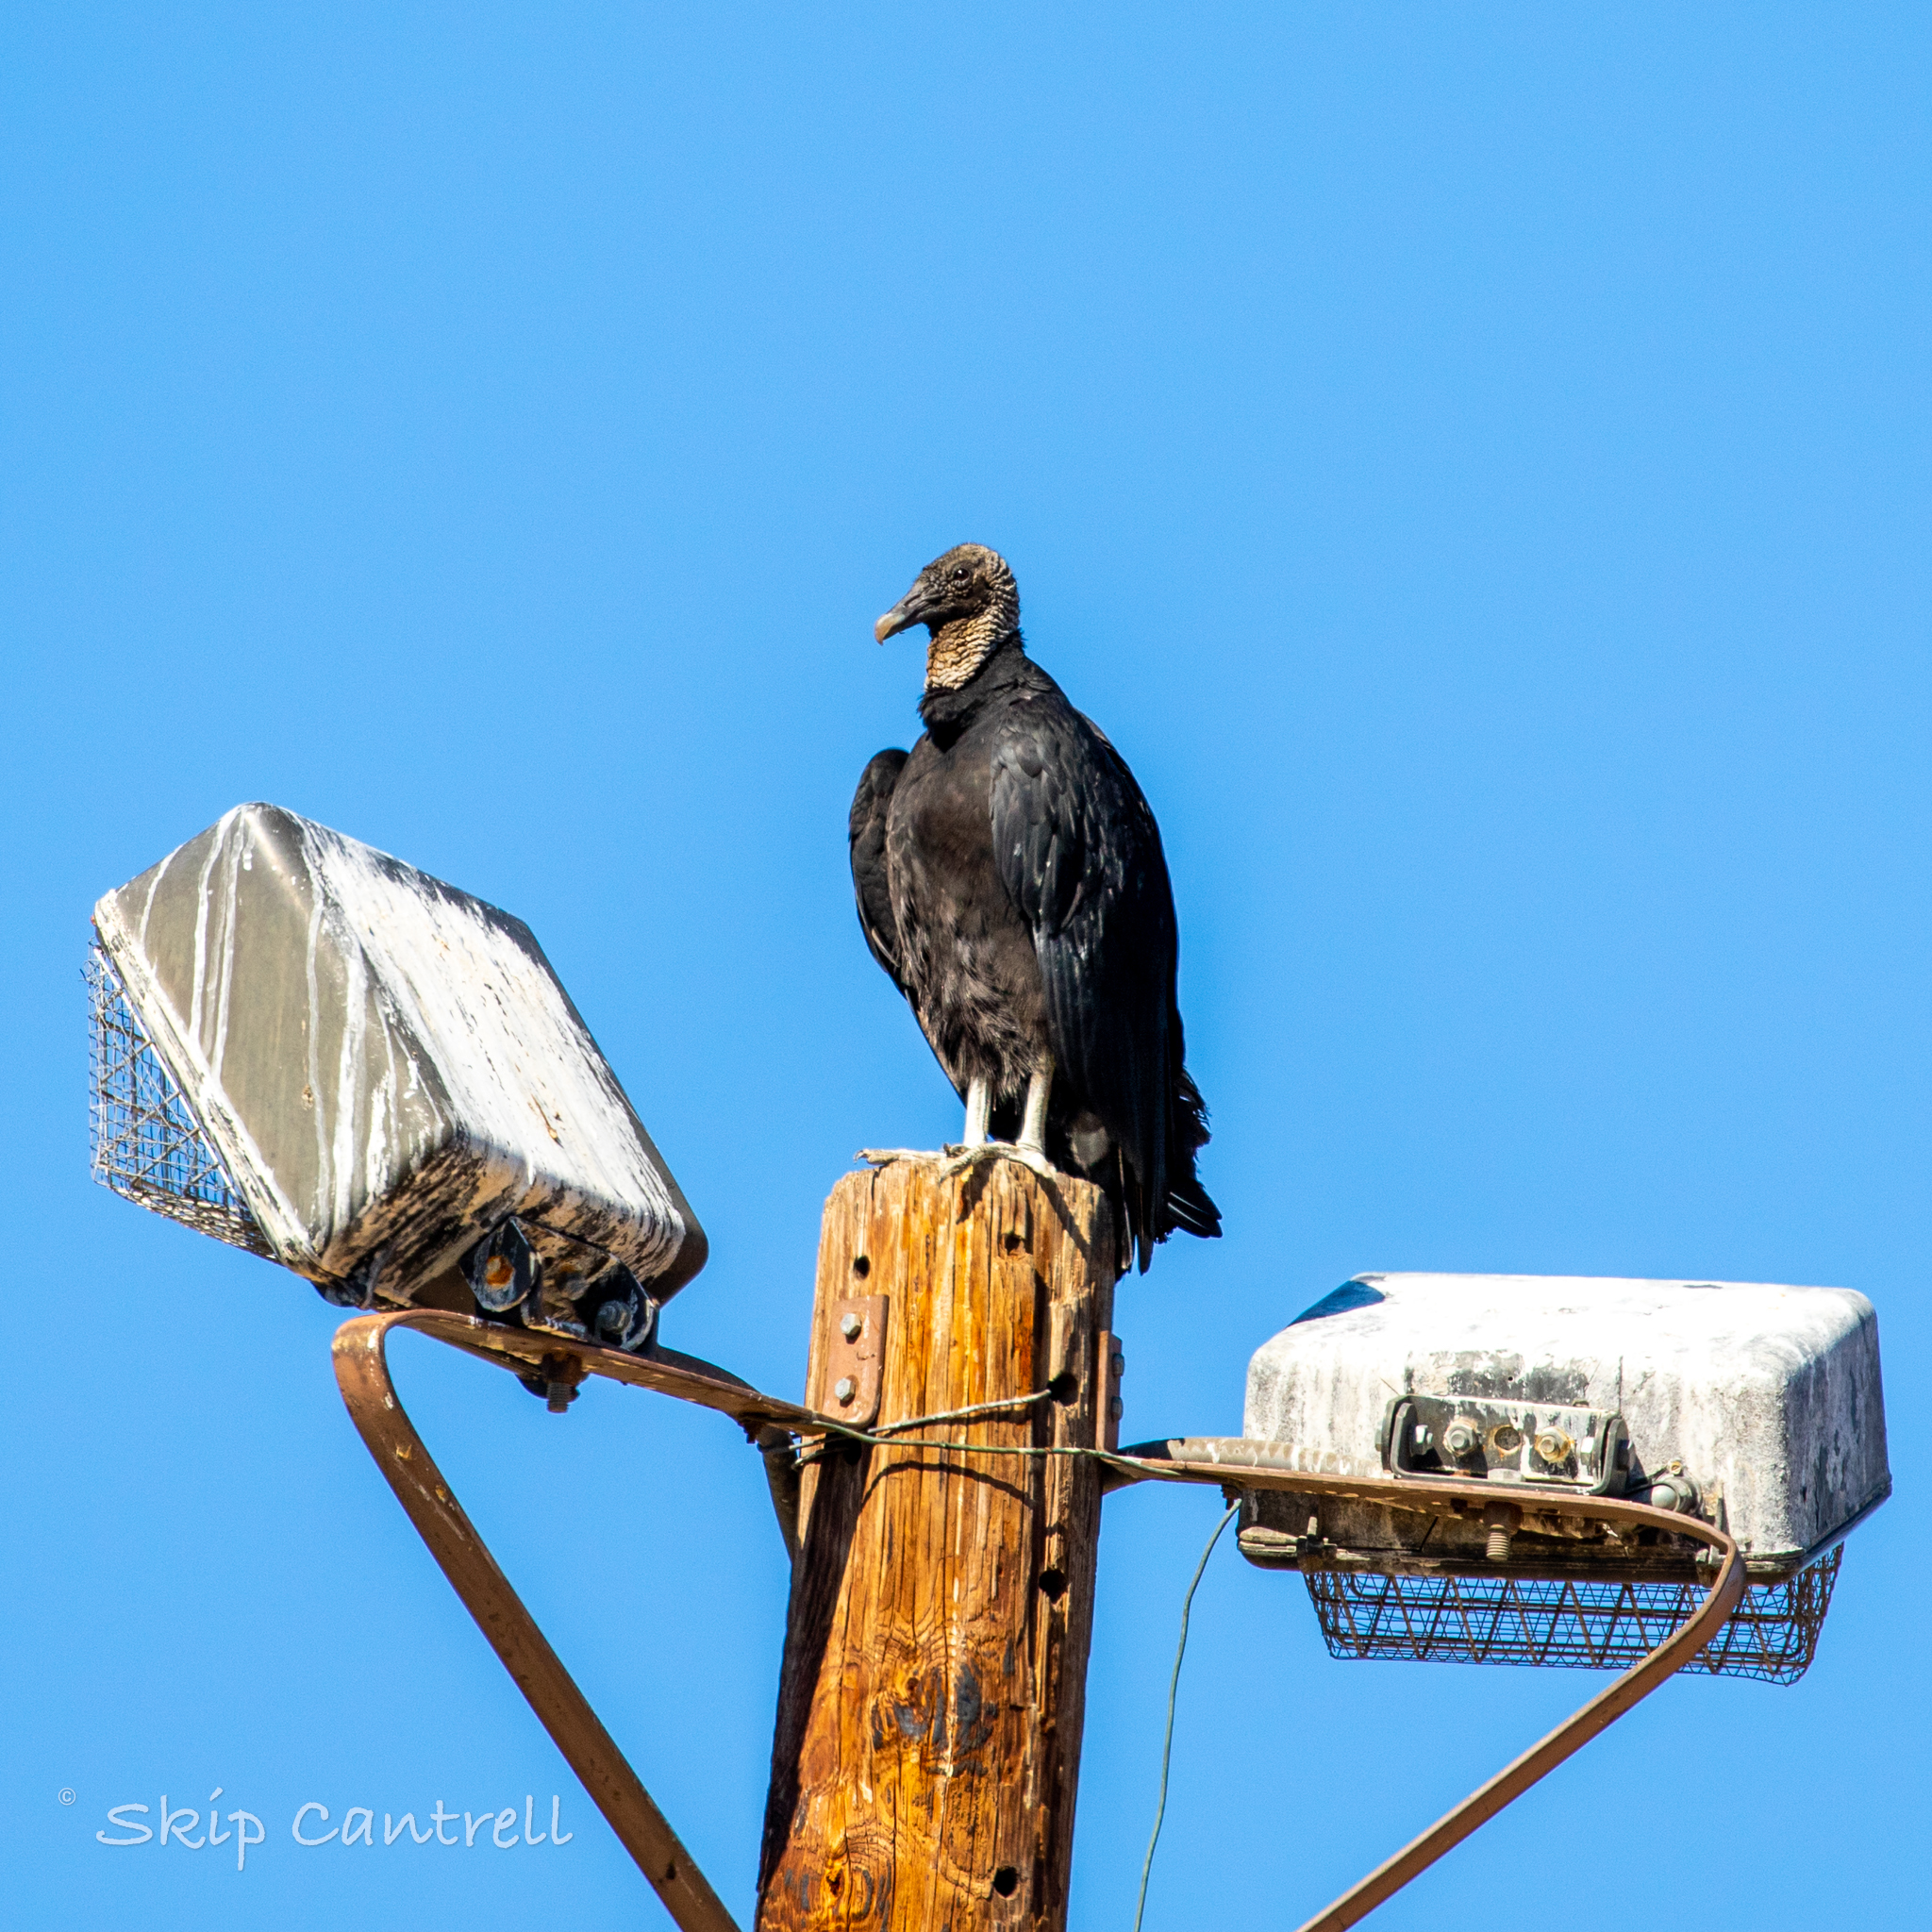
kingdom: Animalia
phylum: Chordata
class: Aves
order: Accipitriformes
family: Cathartidae
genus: Coragyps
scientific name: Coragyps atratus
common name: Black vulture
